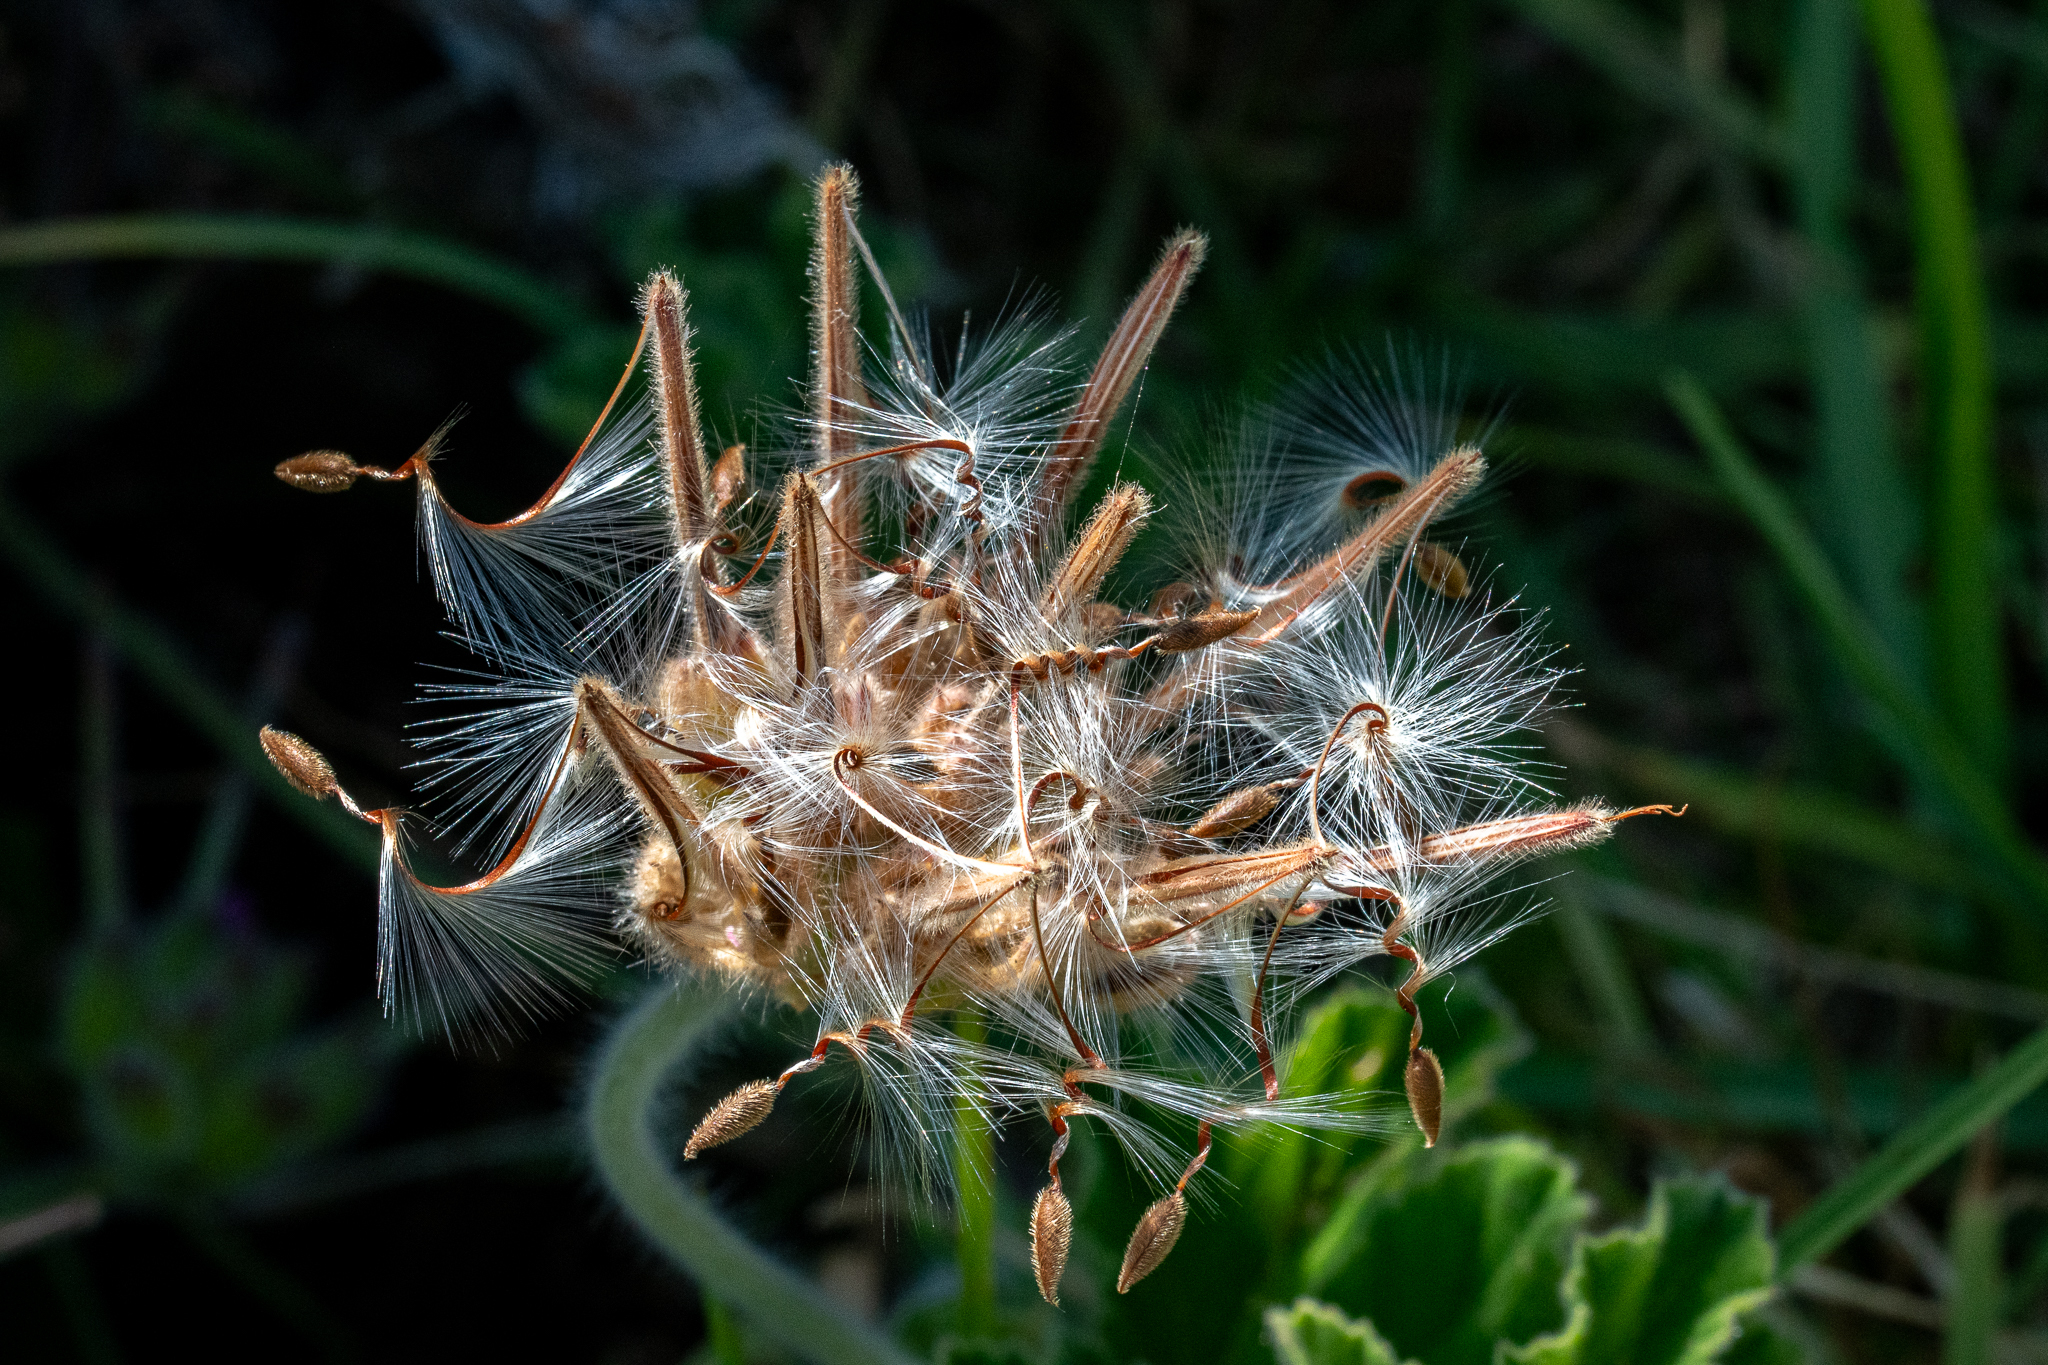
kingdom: Plantae
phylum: Tracheophyta
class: Magnoliopsida
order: Geraniales
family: Geraniaceae
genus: Pelargonium
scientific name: Pelargonium capitatum
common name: Rose scented geranium
